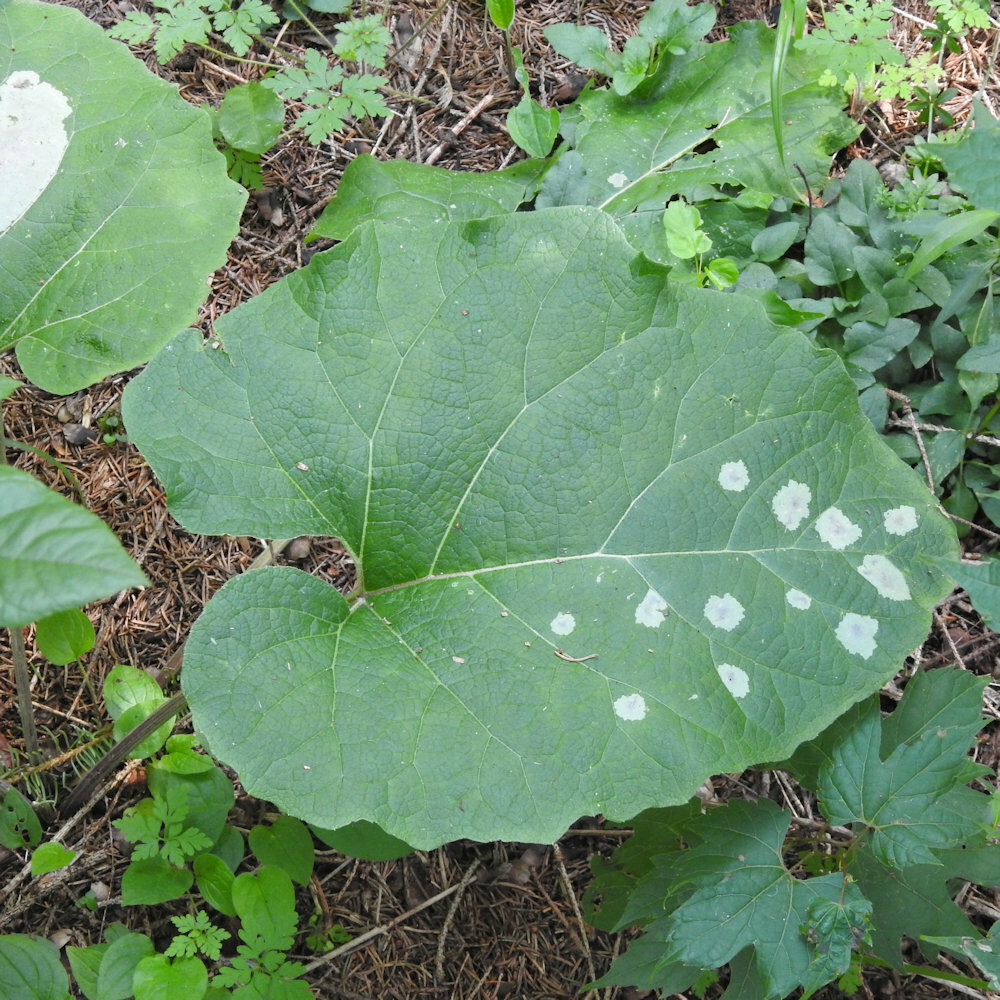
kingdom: Animalia
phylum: Arthropoda
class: Insecta
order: Diptera
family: Agromyzidae
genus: Calycomyza
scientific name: Calycomyza flavinotum
